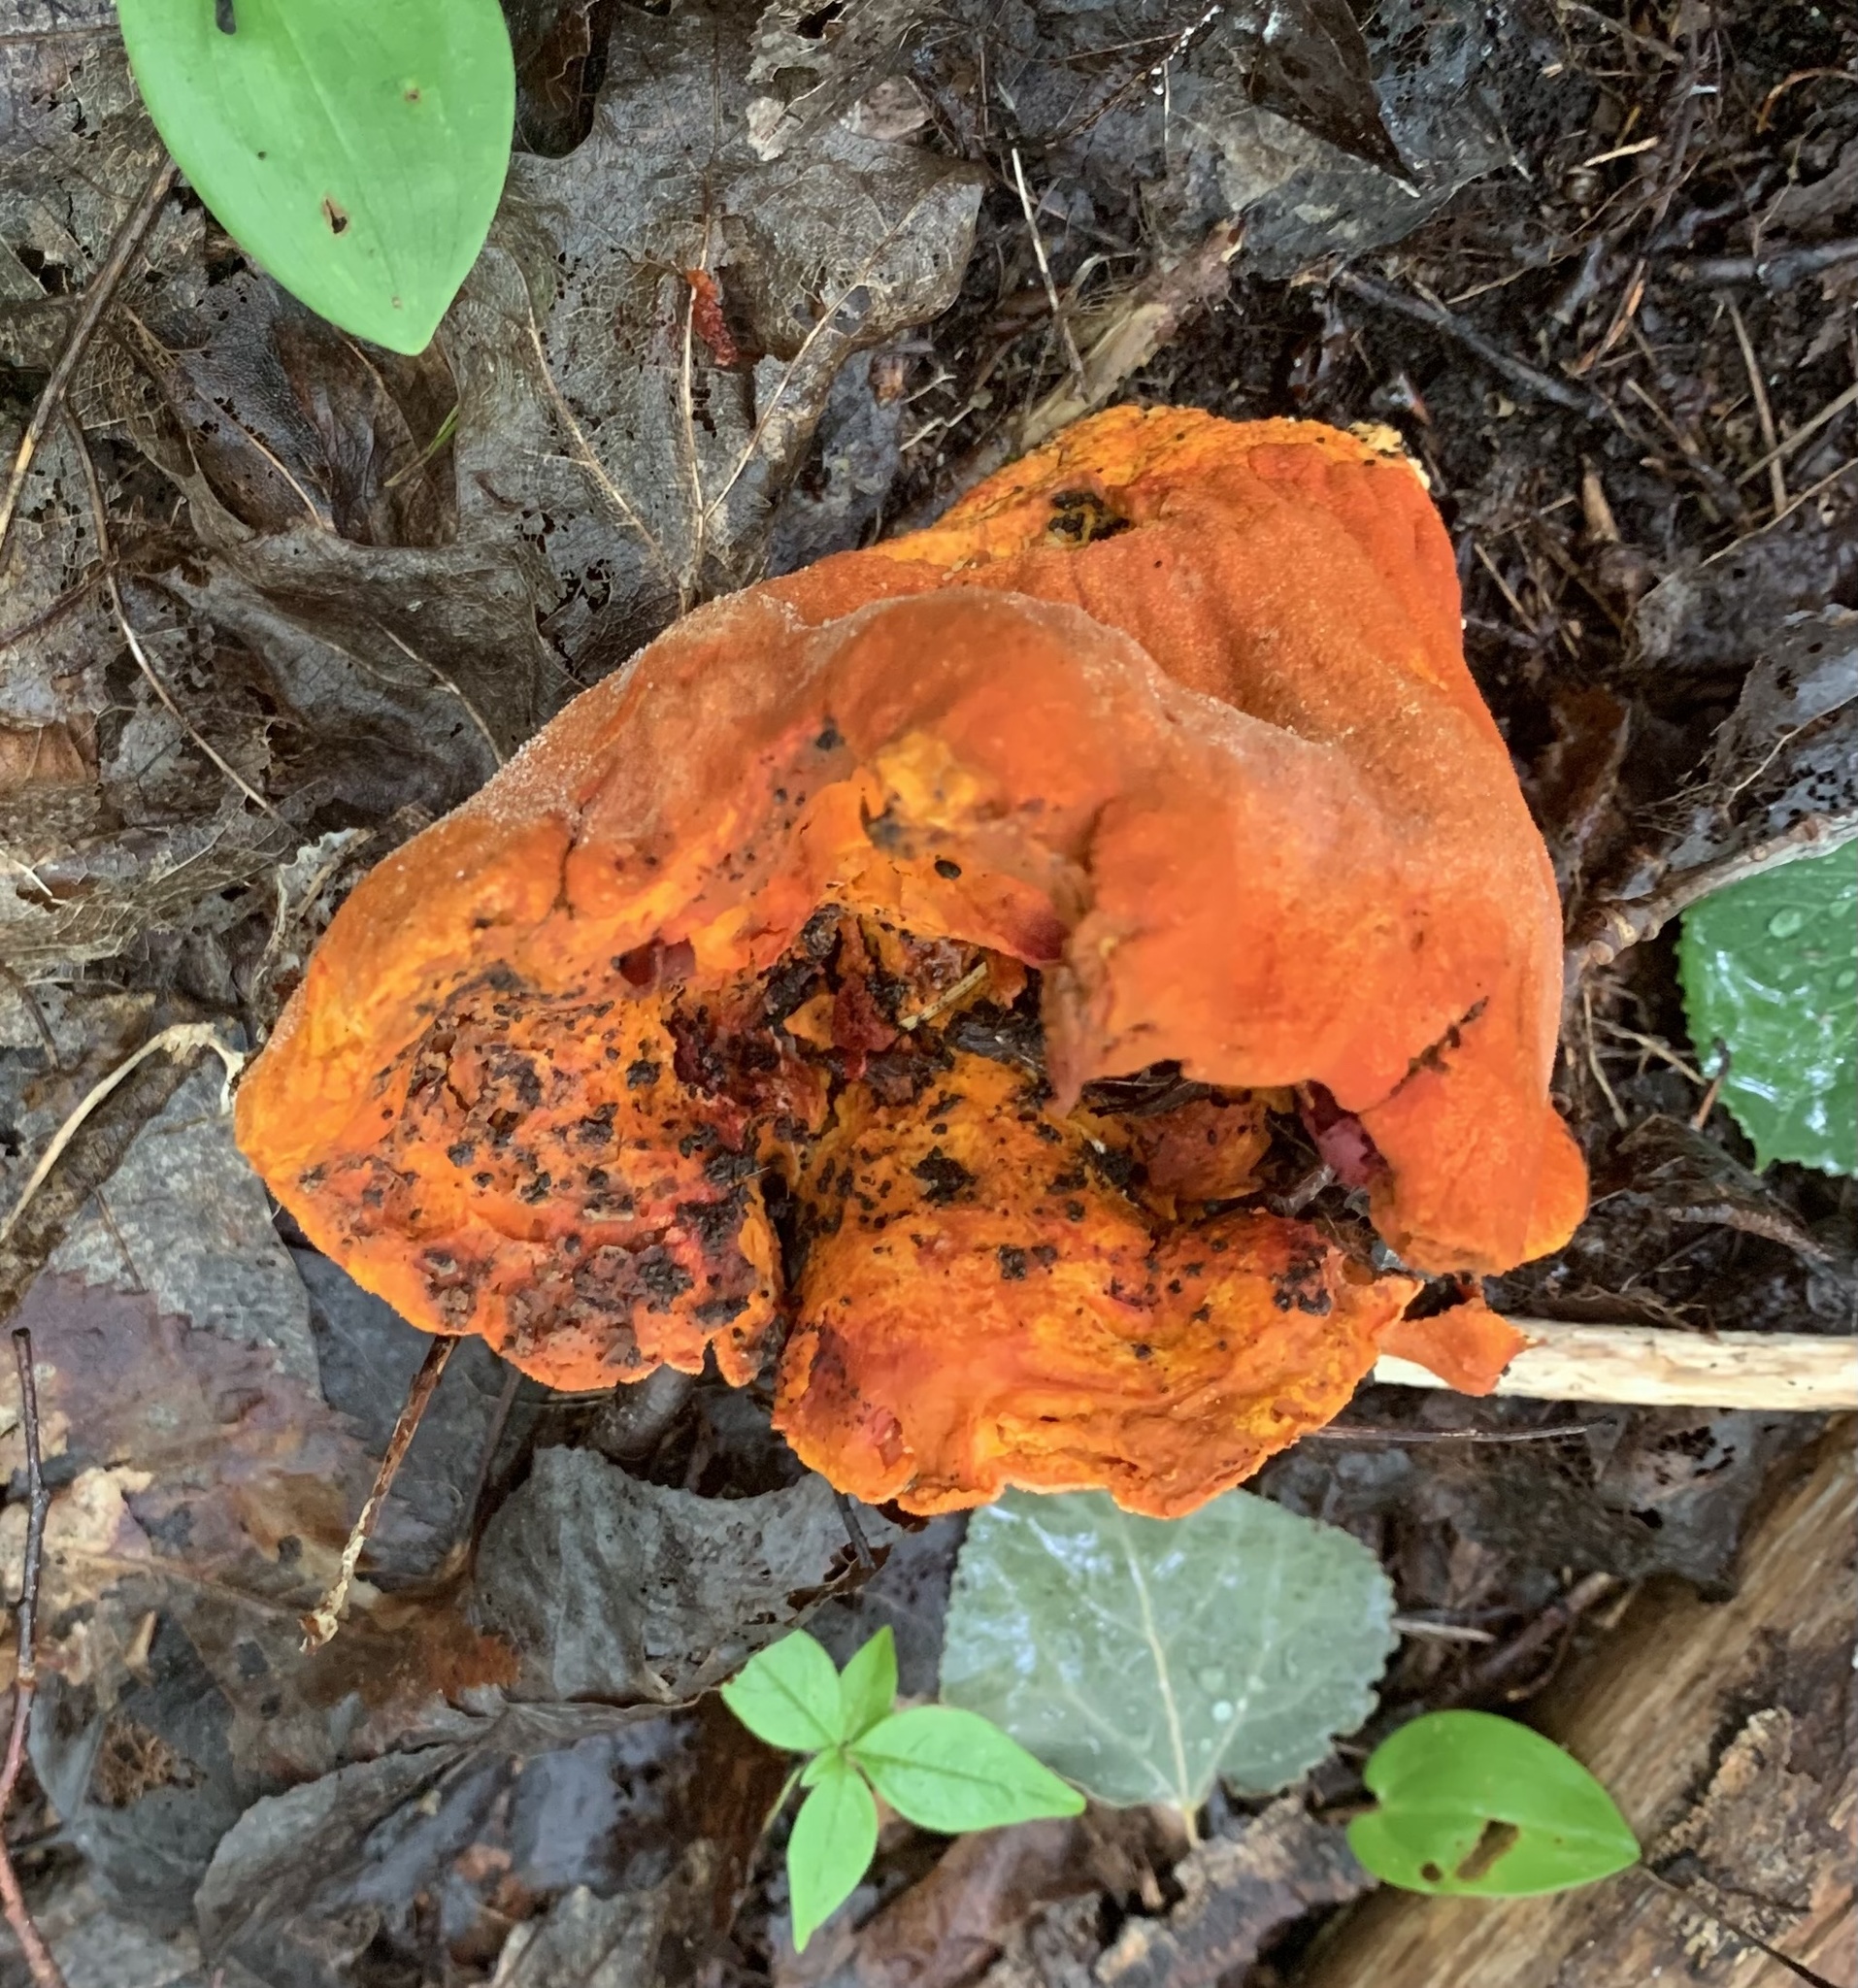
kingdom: Fungi
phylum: Ascomycota
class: Sordariomycetes
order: Hypocreales
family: Hypocreaceae
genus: Hypomyces
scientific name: Hypomyces lactifluorum
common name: Lobster mushroom
